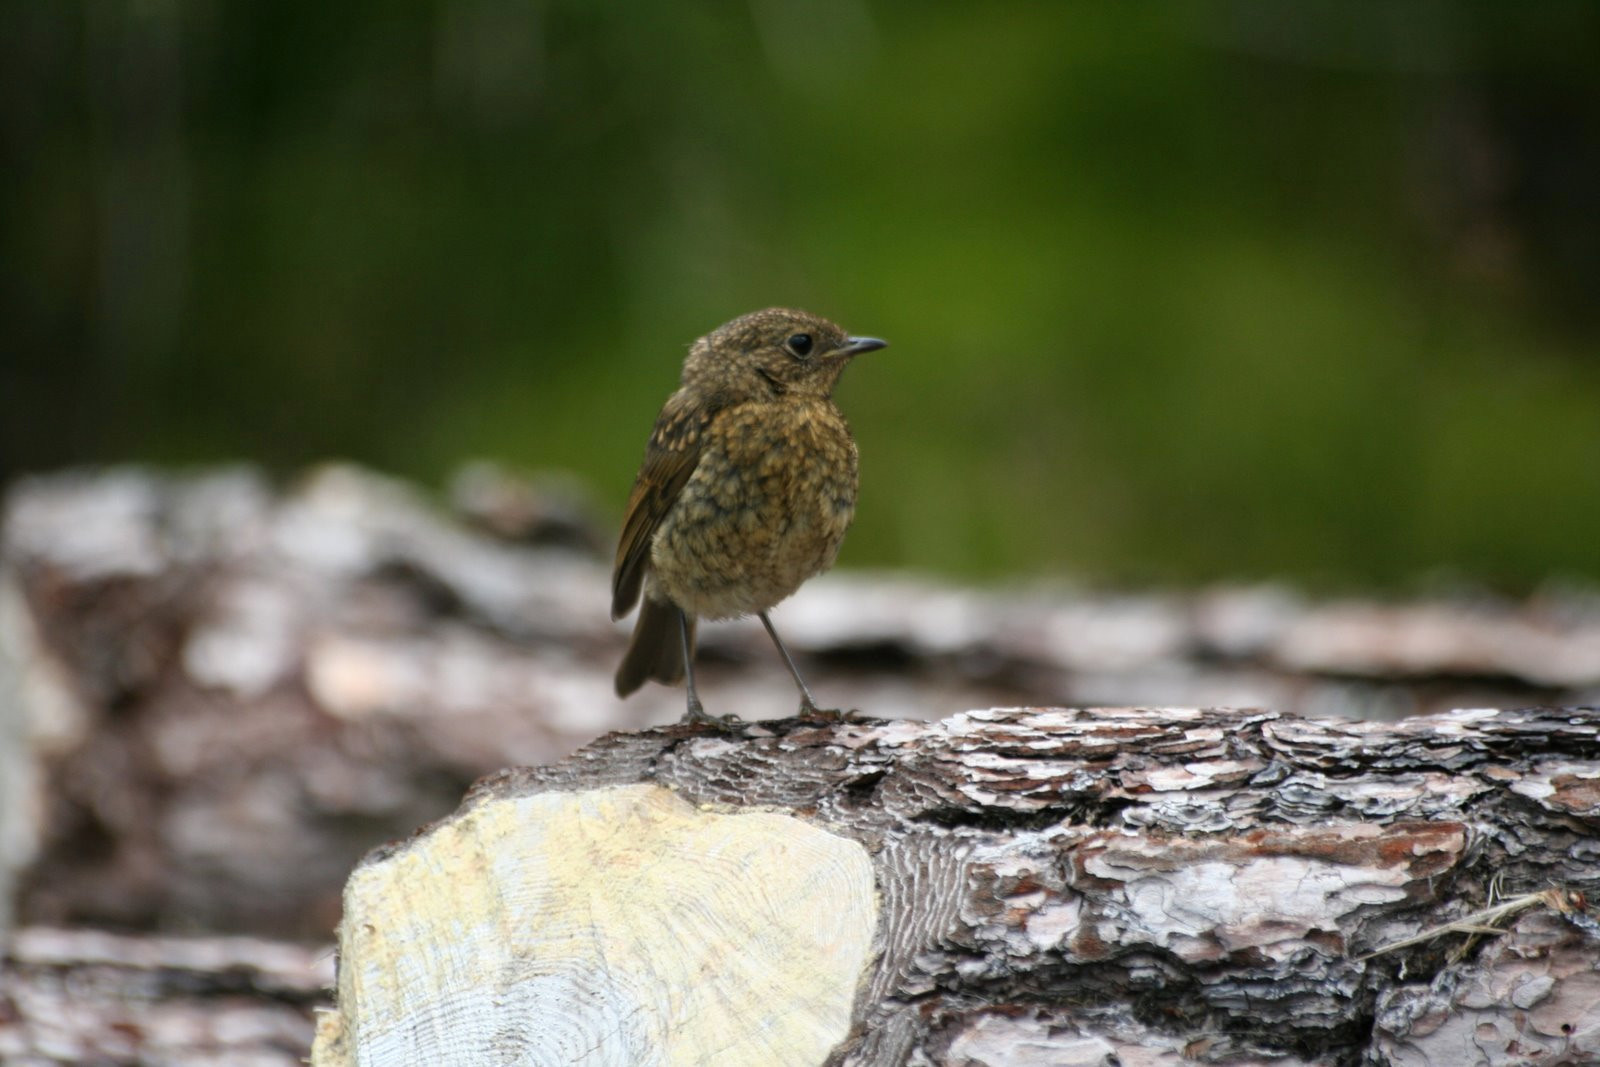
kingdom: Animalia
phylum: Chordata
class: Aves
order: Passeriformes
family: Muscicapidae
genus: Erithacus
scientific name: Erithacus rubecula
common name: European robin
